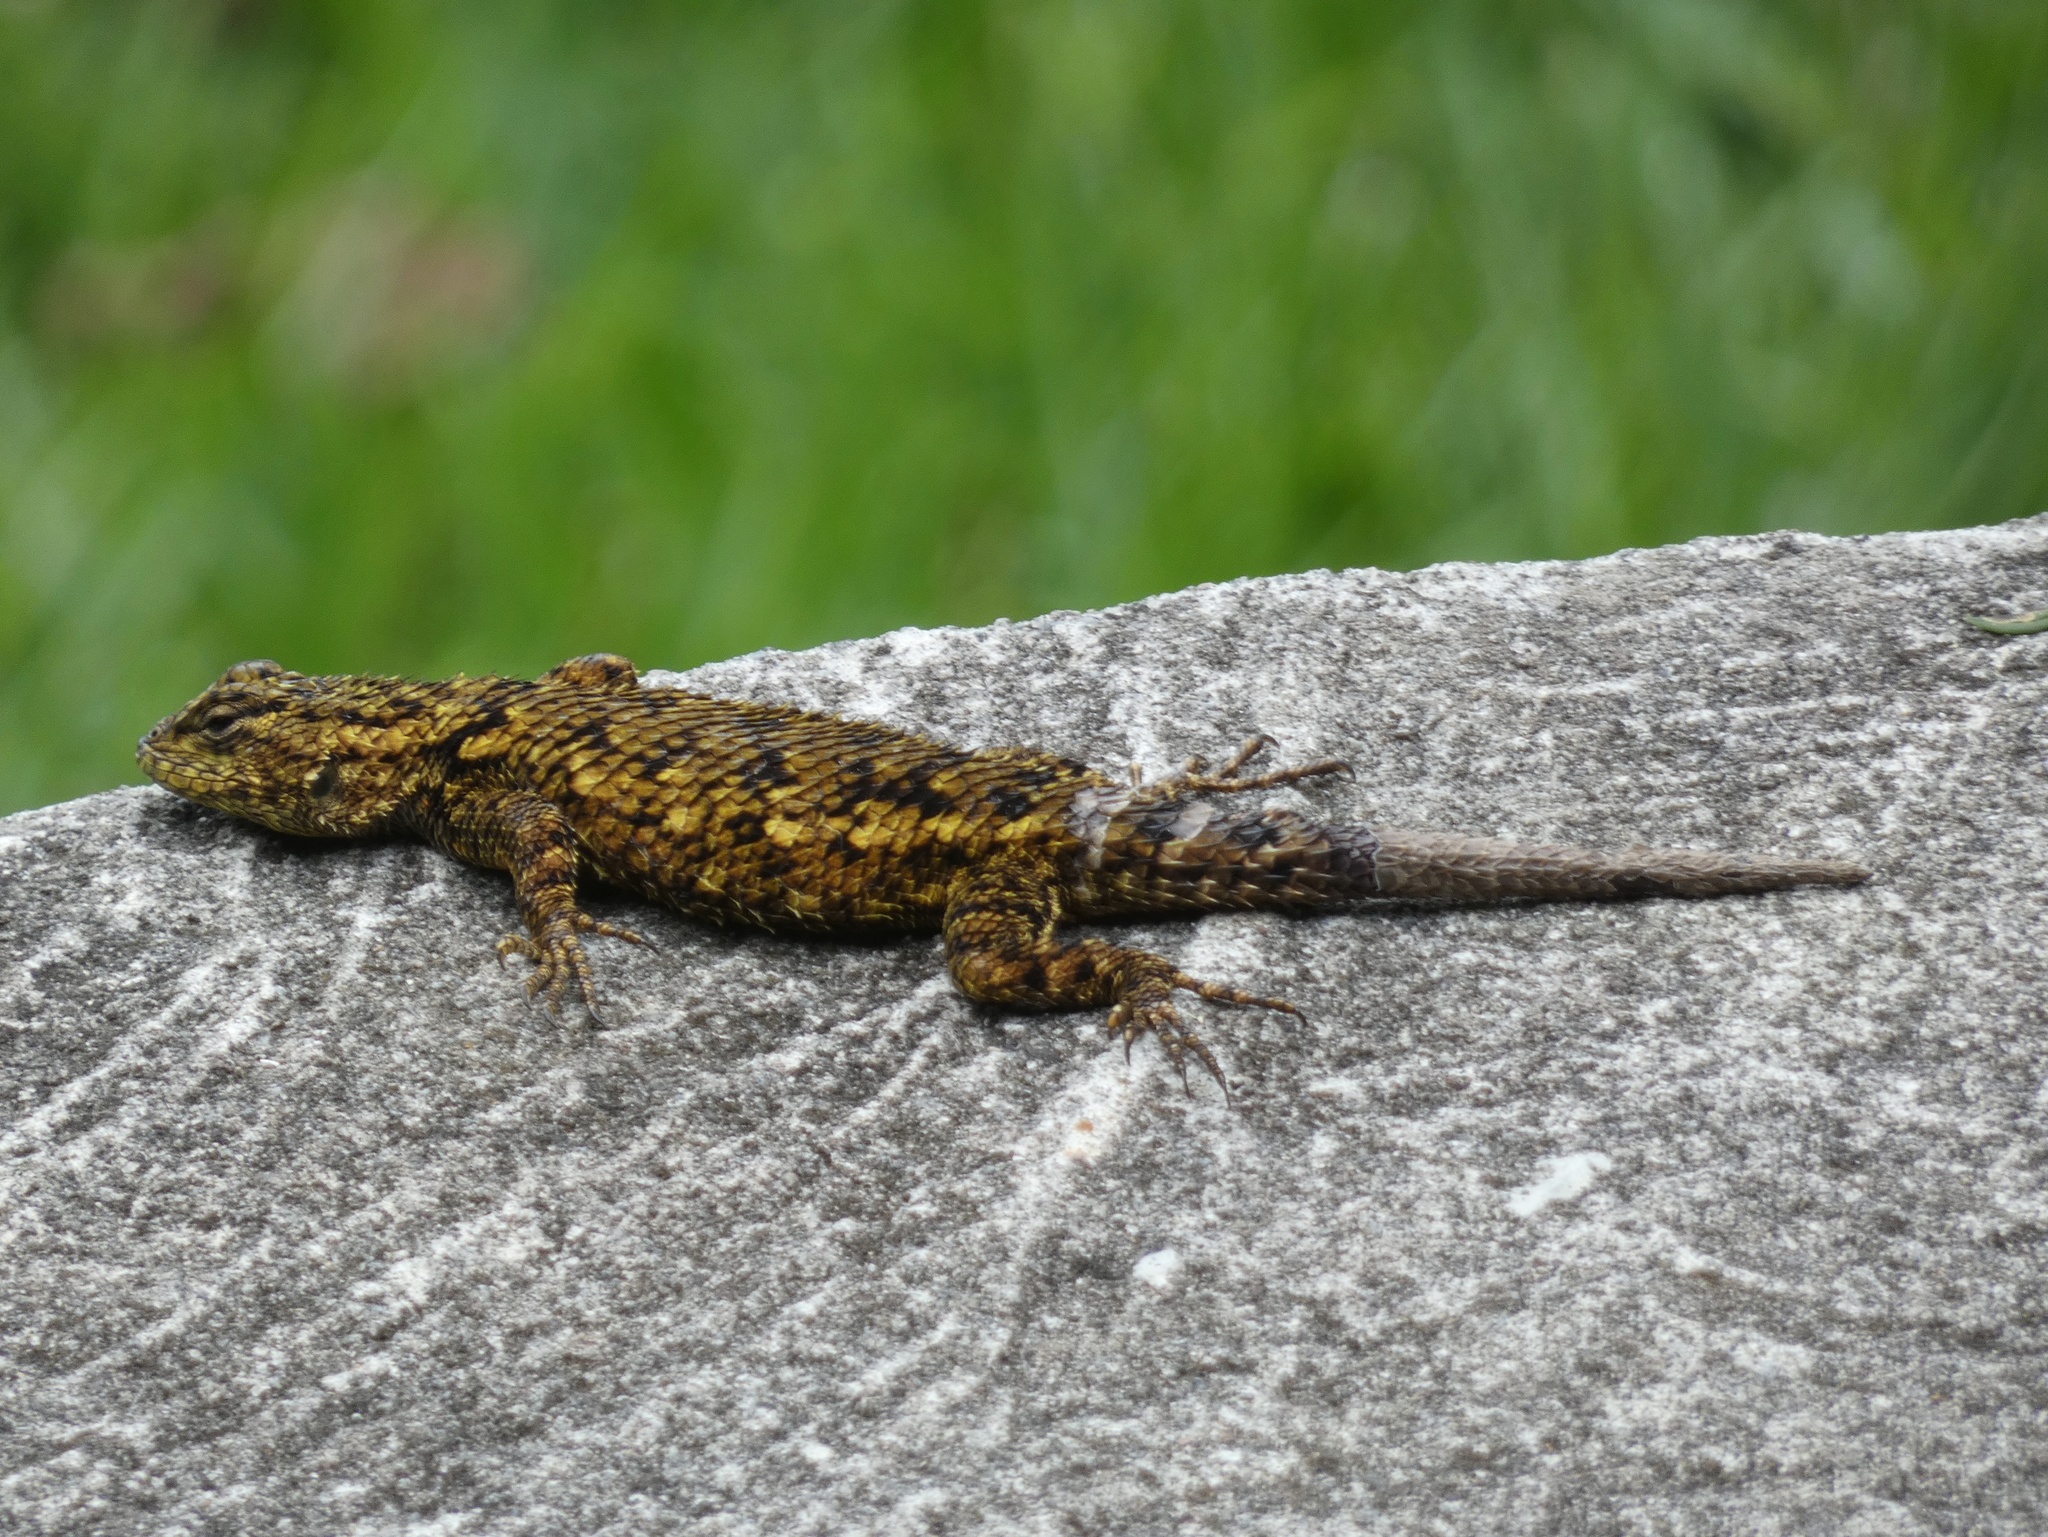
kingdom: Animalia
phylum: Chordata
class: Squamata
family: Phrynosomatidae
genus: Sceloporus
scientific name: Sceloporus malachiticus
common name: Green spiny lizard
